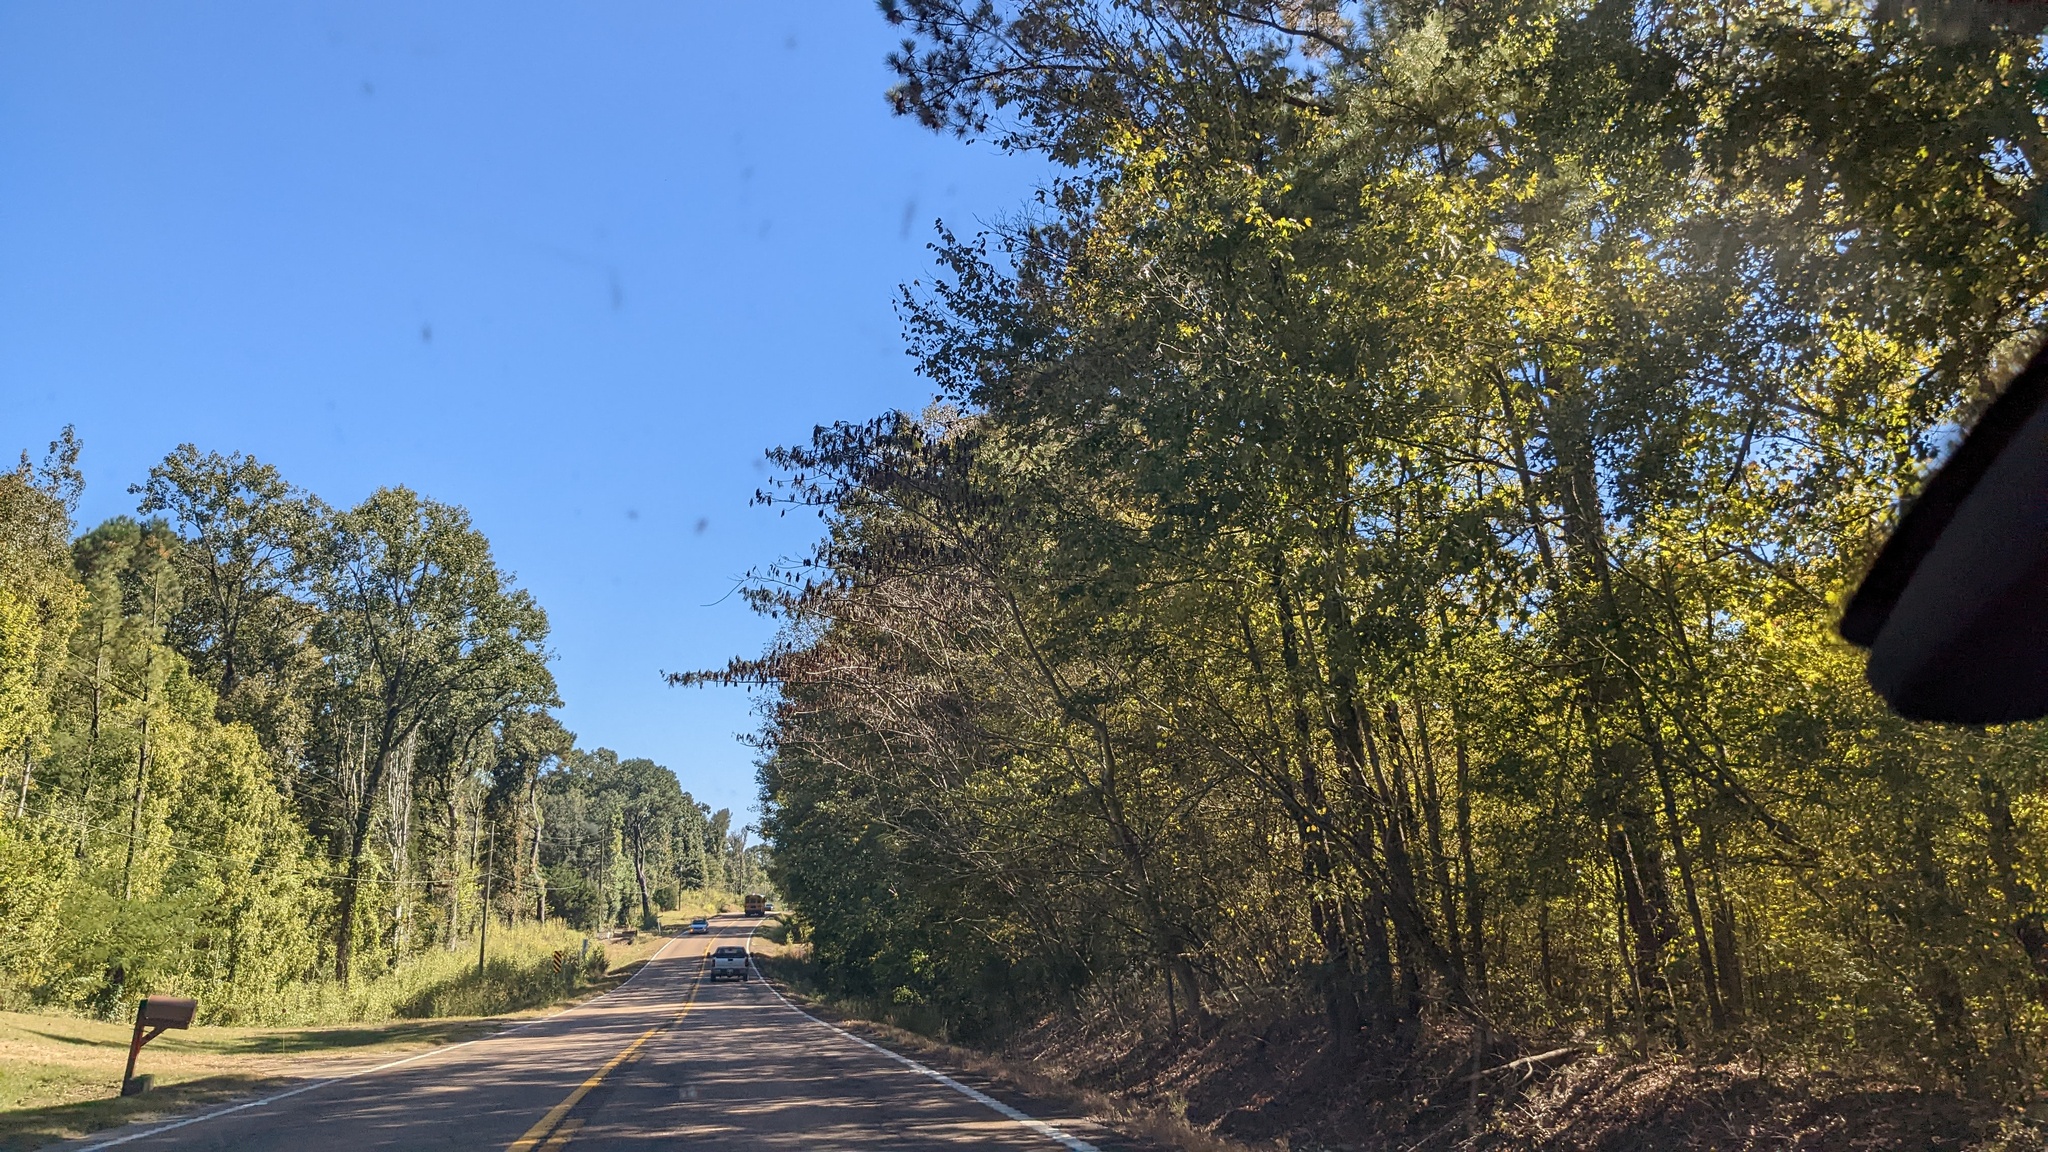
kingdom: Plantae
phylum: Tracheophyta
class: Magnoliopsida
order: Fabales
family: Fabaceae
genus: Albizia
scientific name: Albizia julibrissin
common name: Silktree
